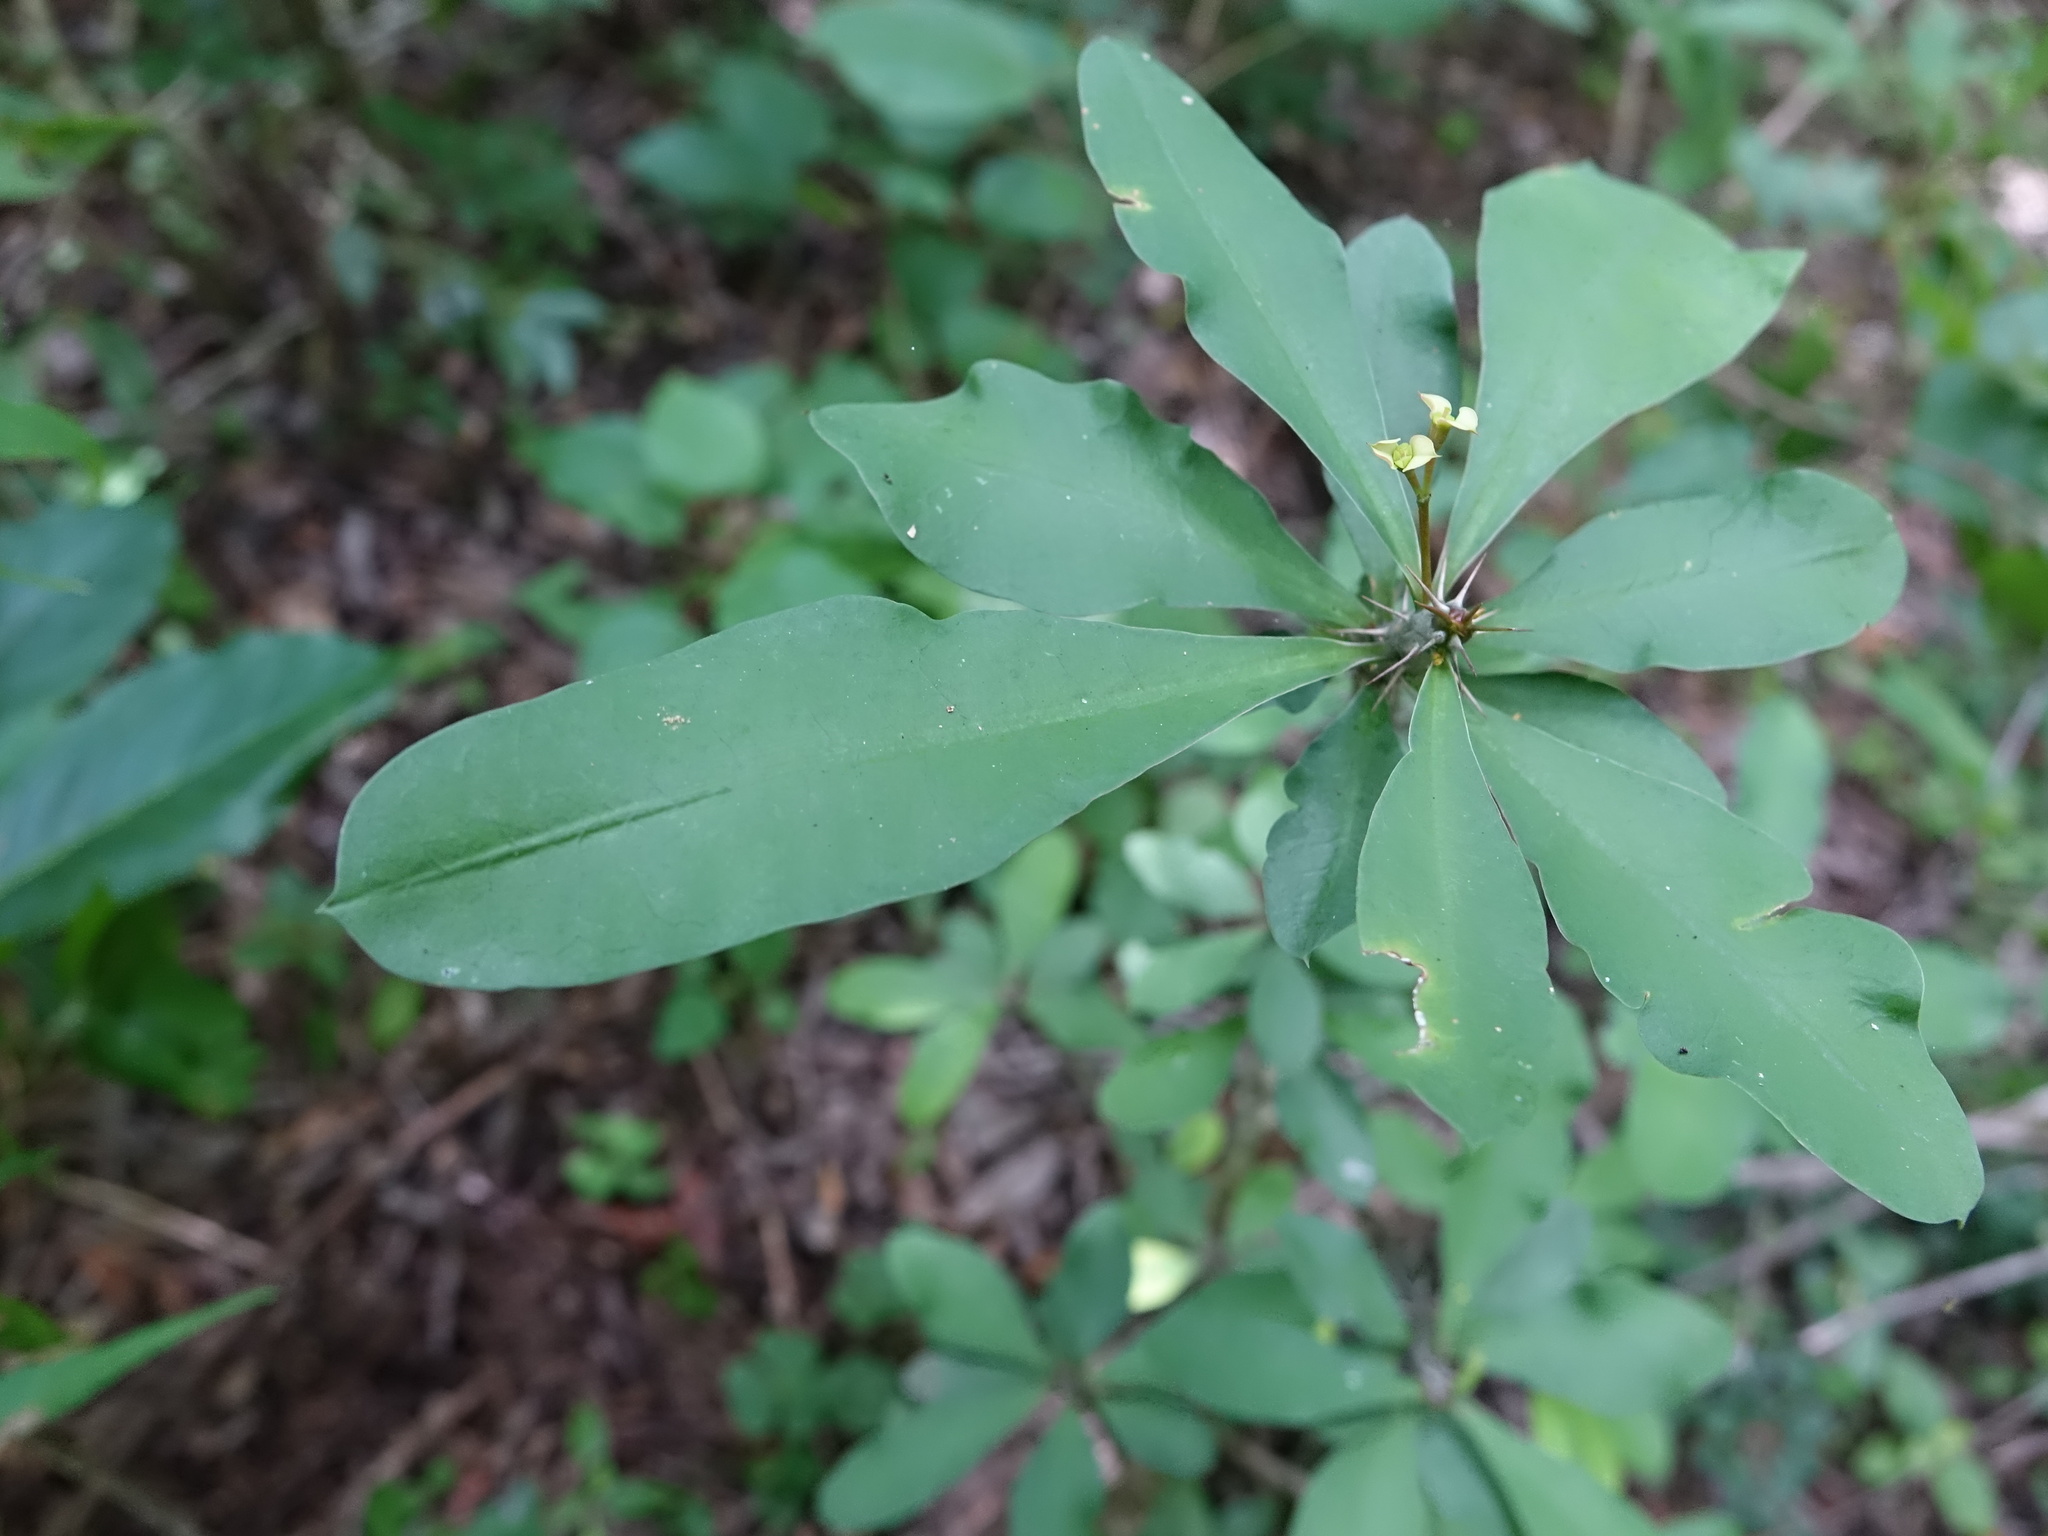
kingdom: Plantae
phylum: Tracheophyta
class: Magnoliopsida
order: Malpighiales
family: Euphorbiaceae
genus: Euphorbia
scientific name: Euphorbia roseana
